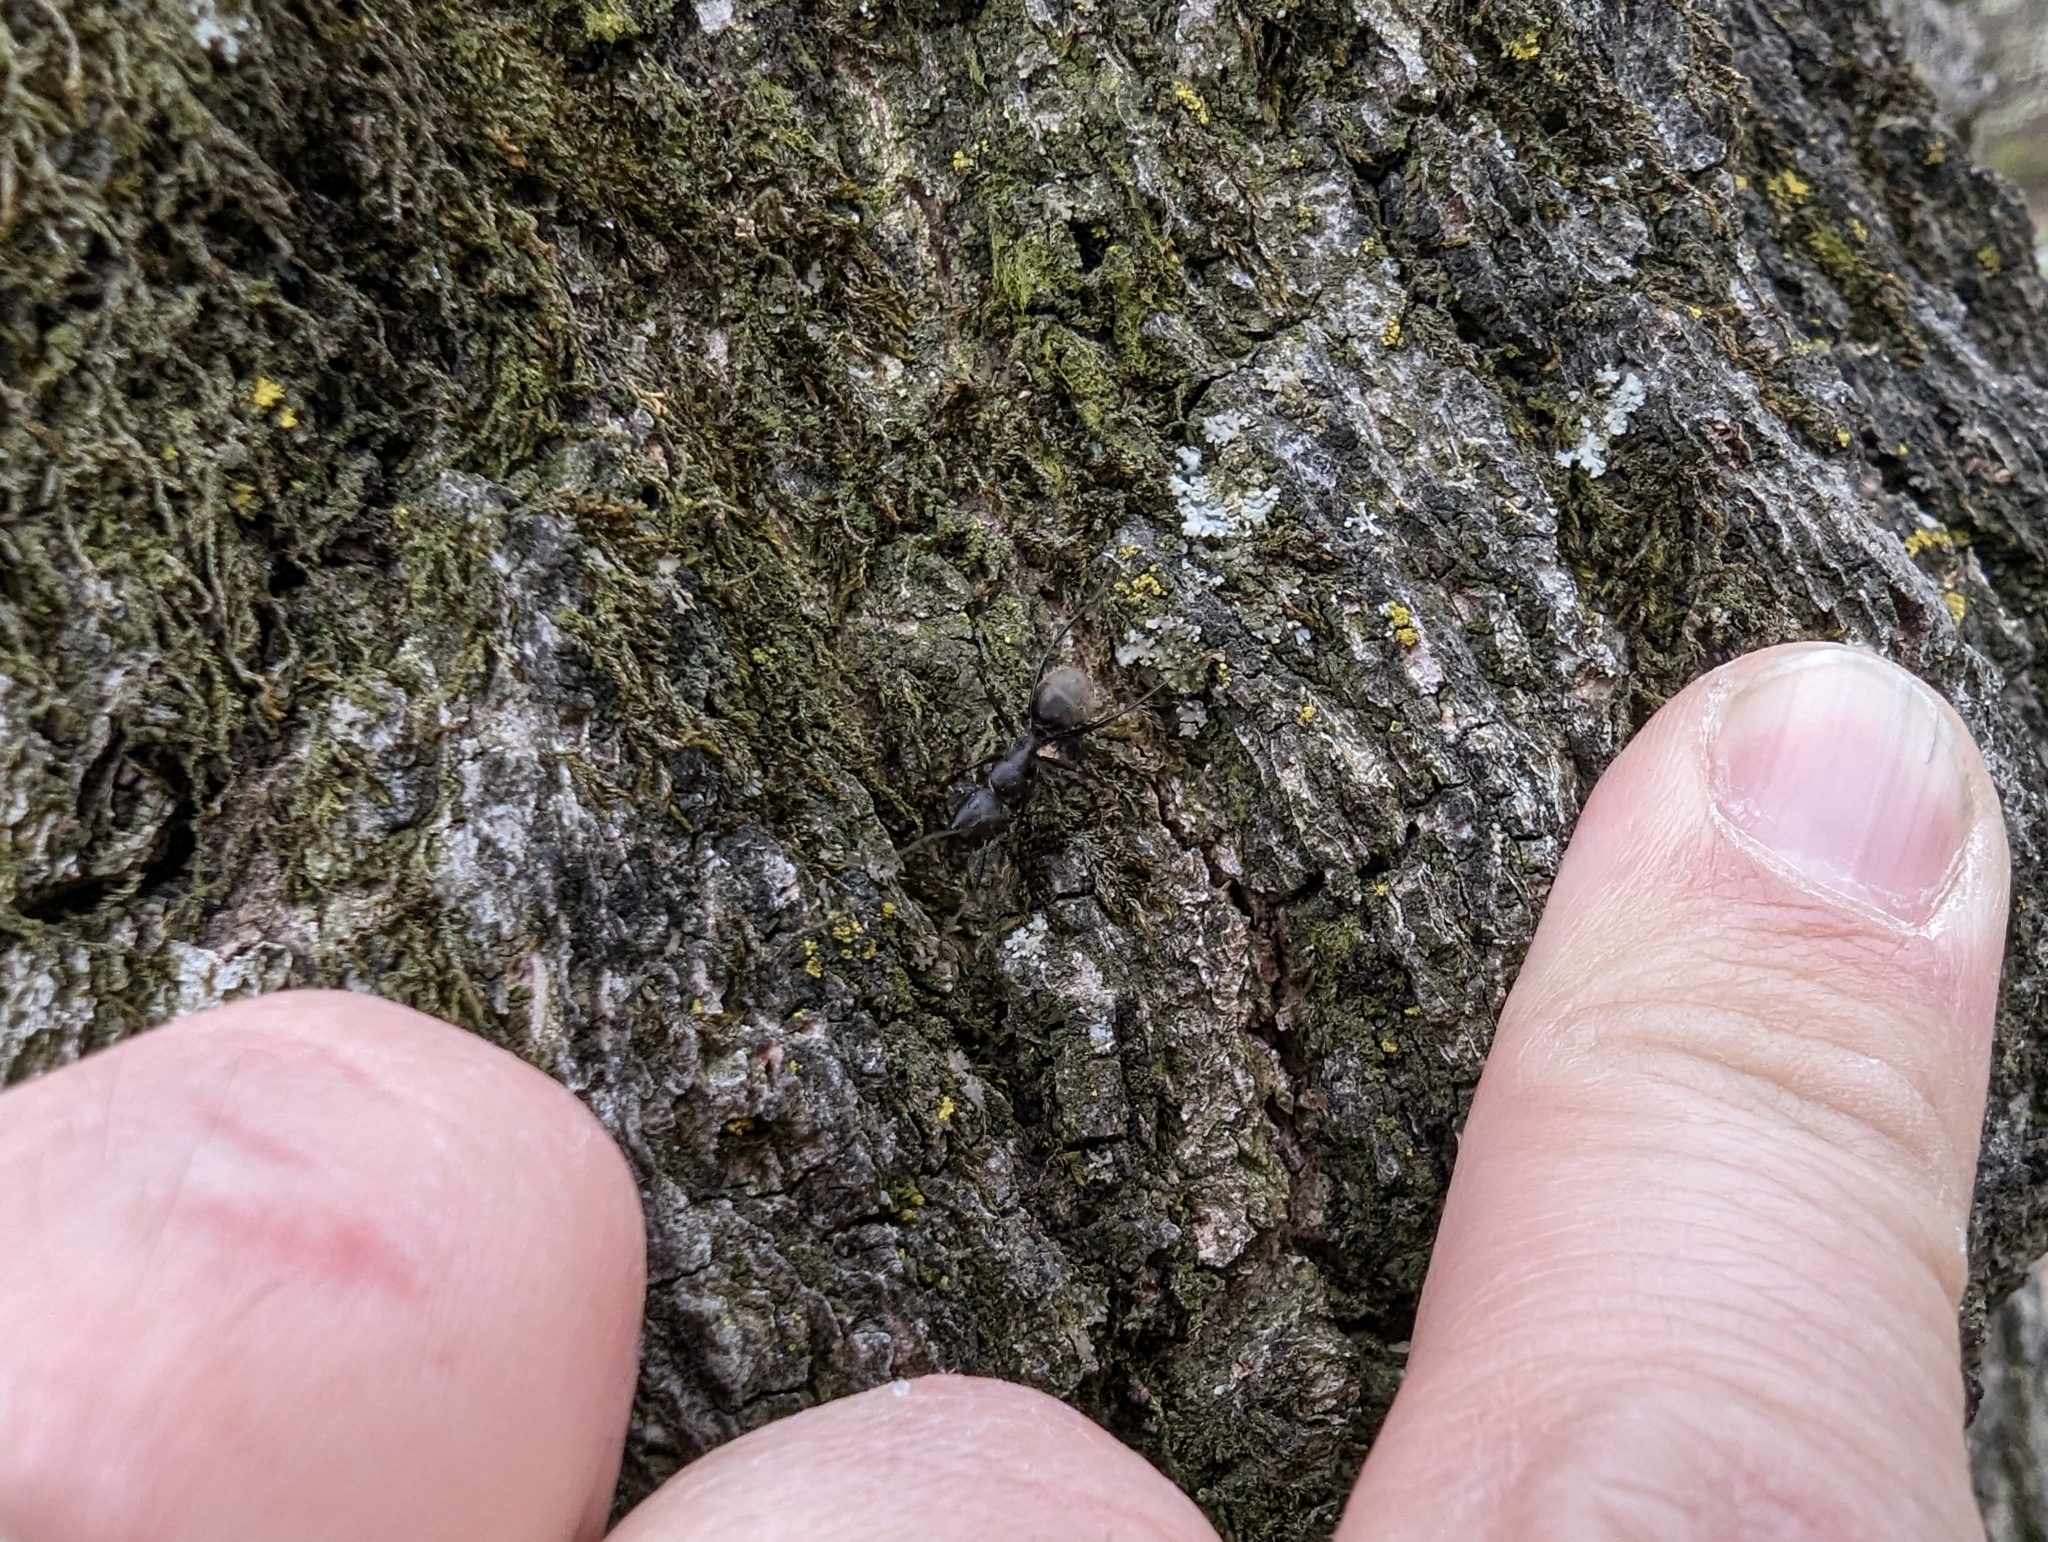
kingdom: Animalia
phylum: Arthropoda
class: Insecta
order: Hymenoptera
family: Formicidae
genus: Camponotus
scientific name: Camponotus pennsylvanicus
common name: Black carpenter ant
